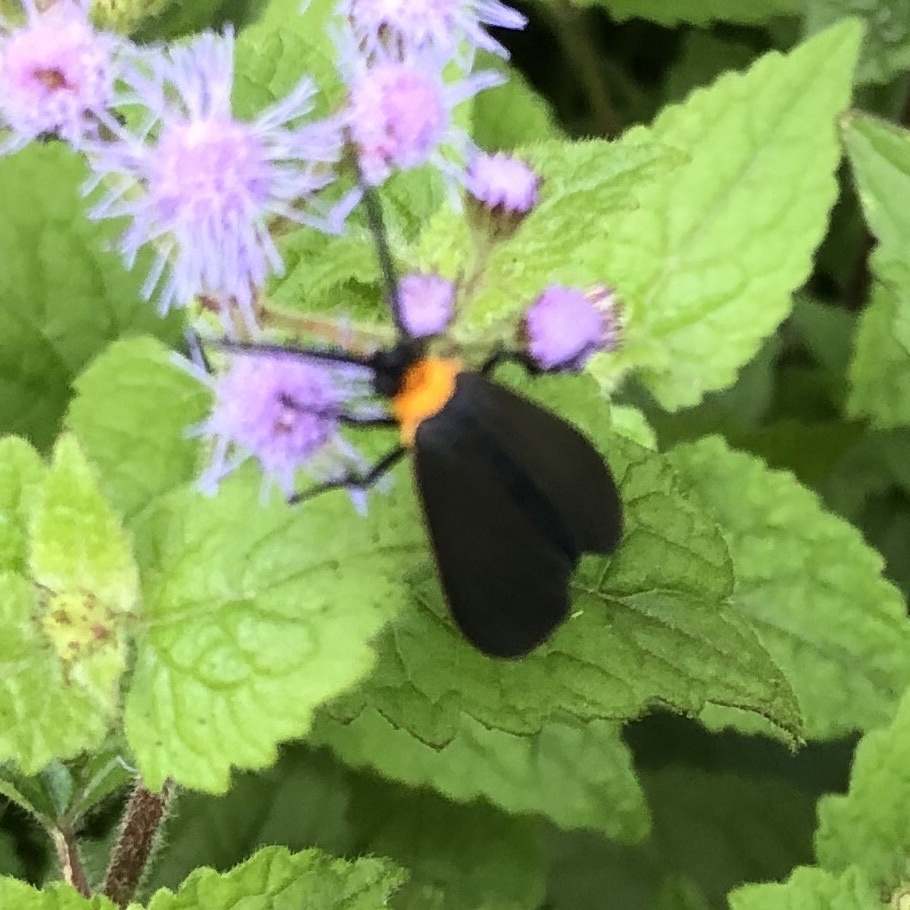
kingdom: Animalia
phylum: Arthropoda
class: Insecta
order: Lepidoptera
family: Erebidae
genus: Cisseps
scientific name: Cisseps fulvicollis
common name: Yellow-collared scape moth
